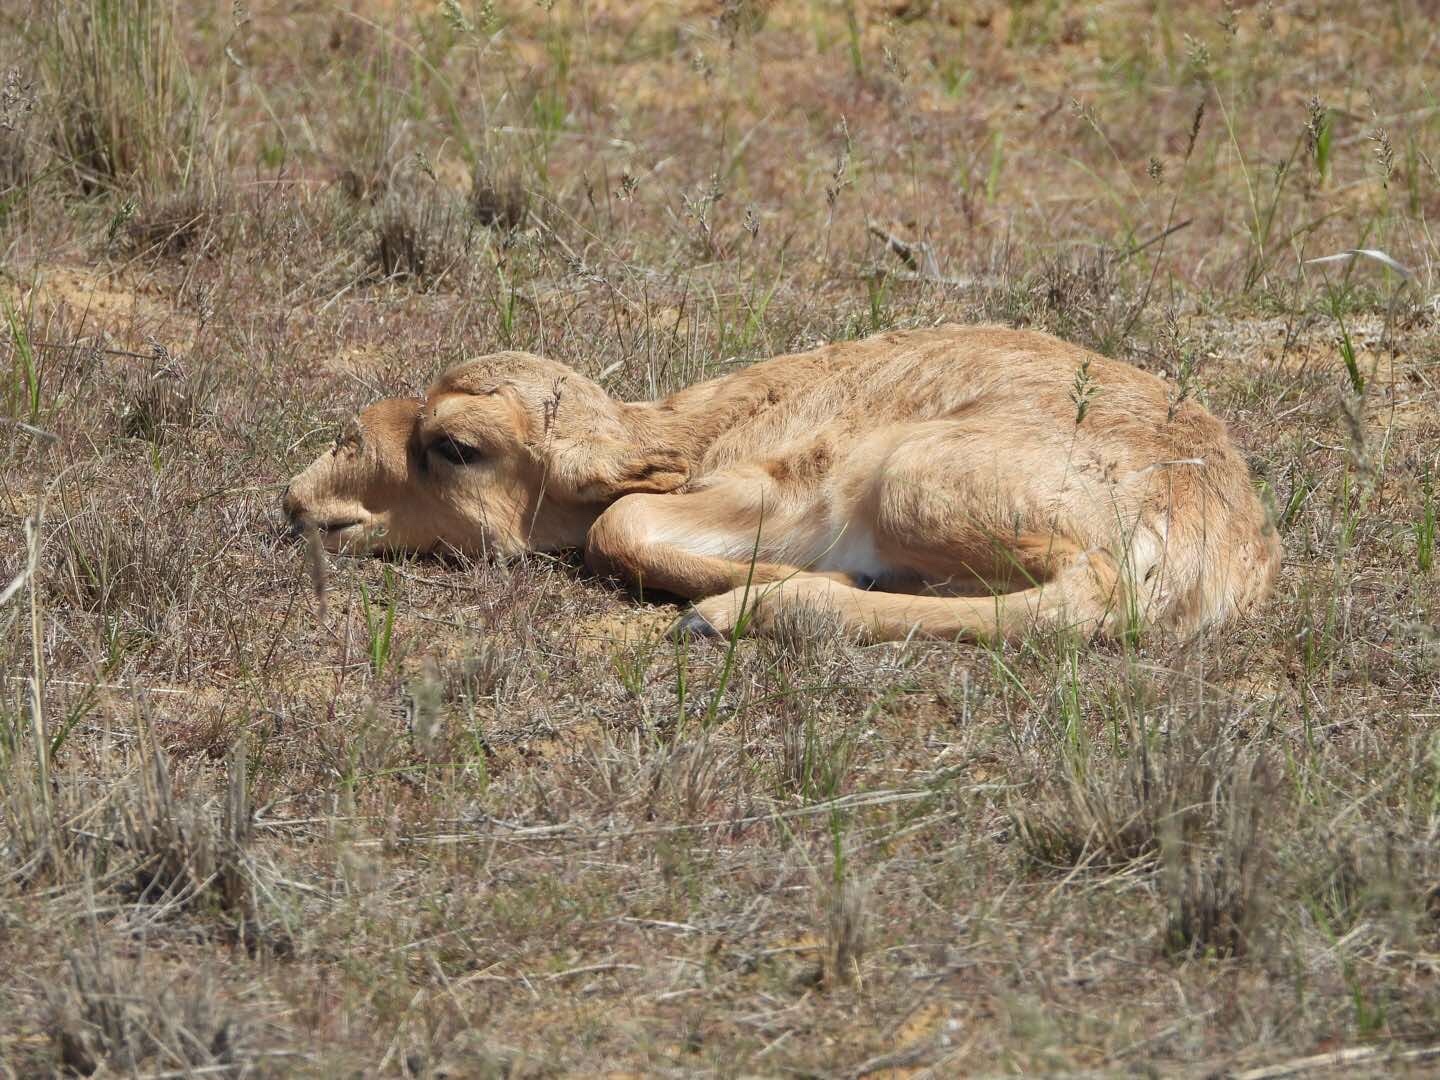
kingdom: Animalia
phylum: Chordata
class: Mammalia
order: Artiodactyla
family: Bovidae
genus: Saiga
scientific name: Saiga tatarica
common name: Saiga
